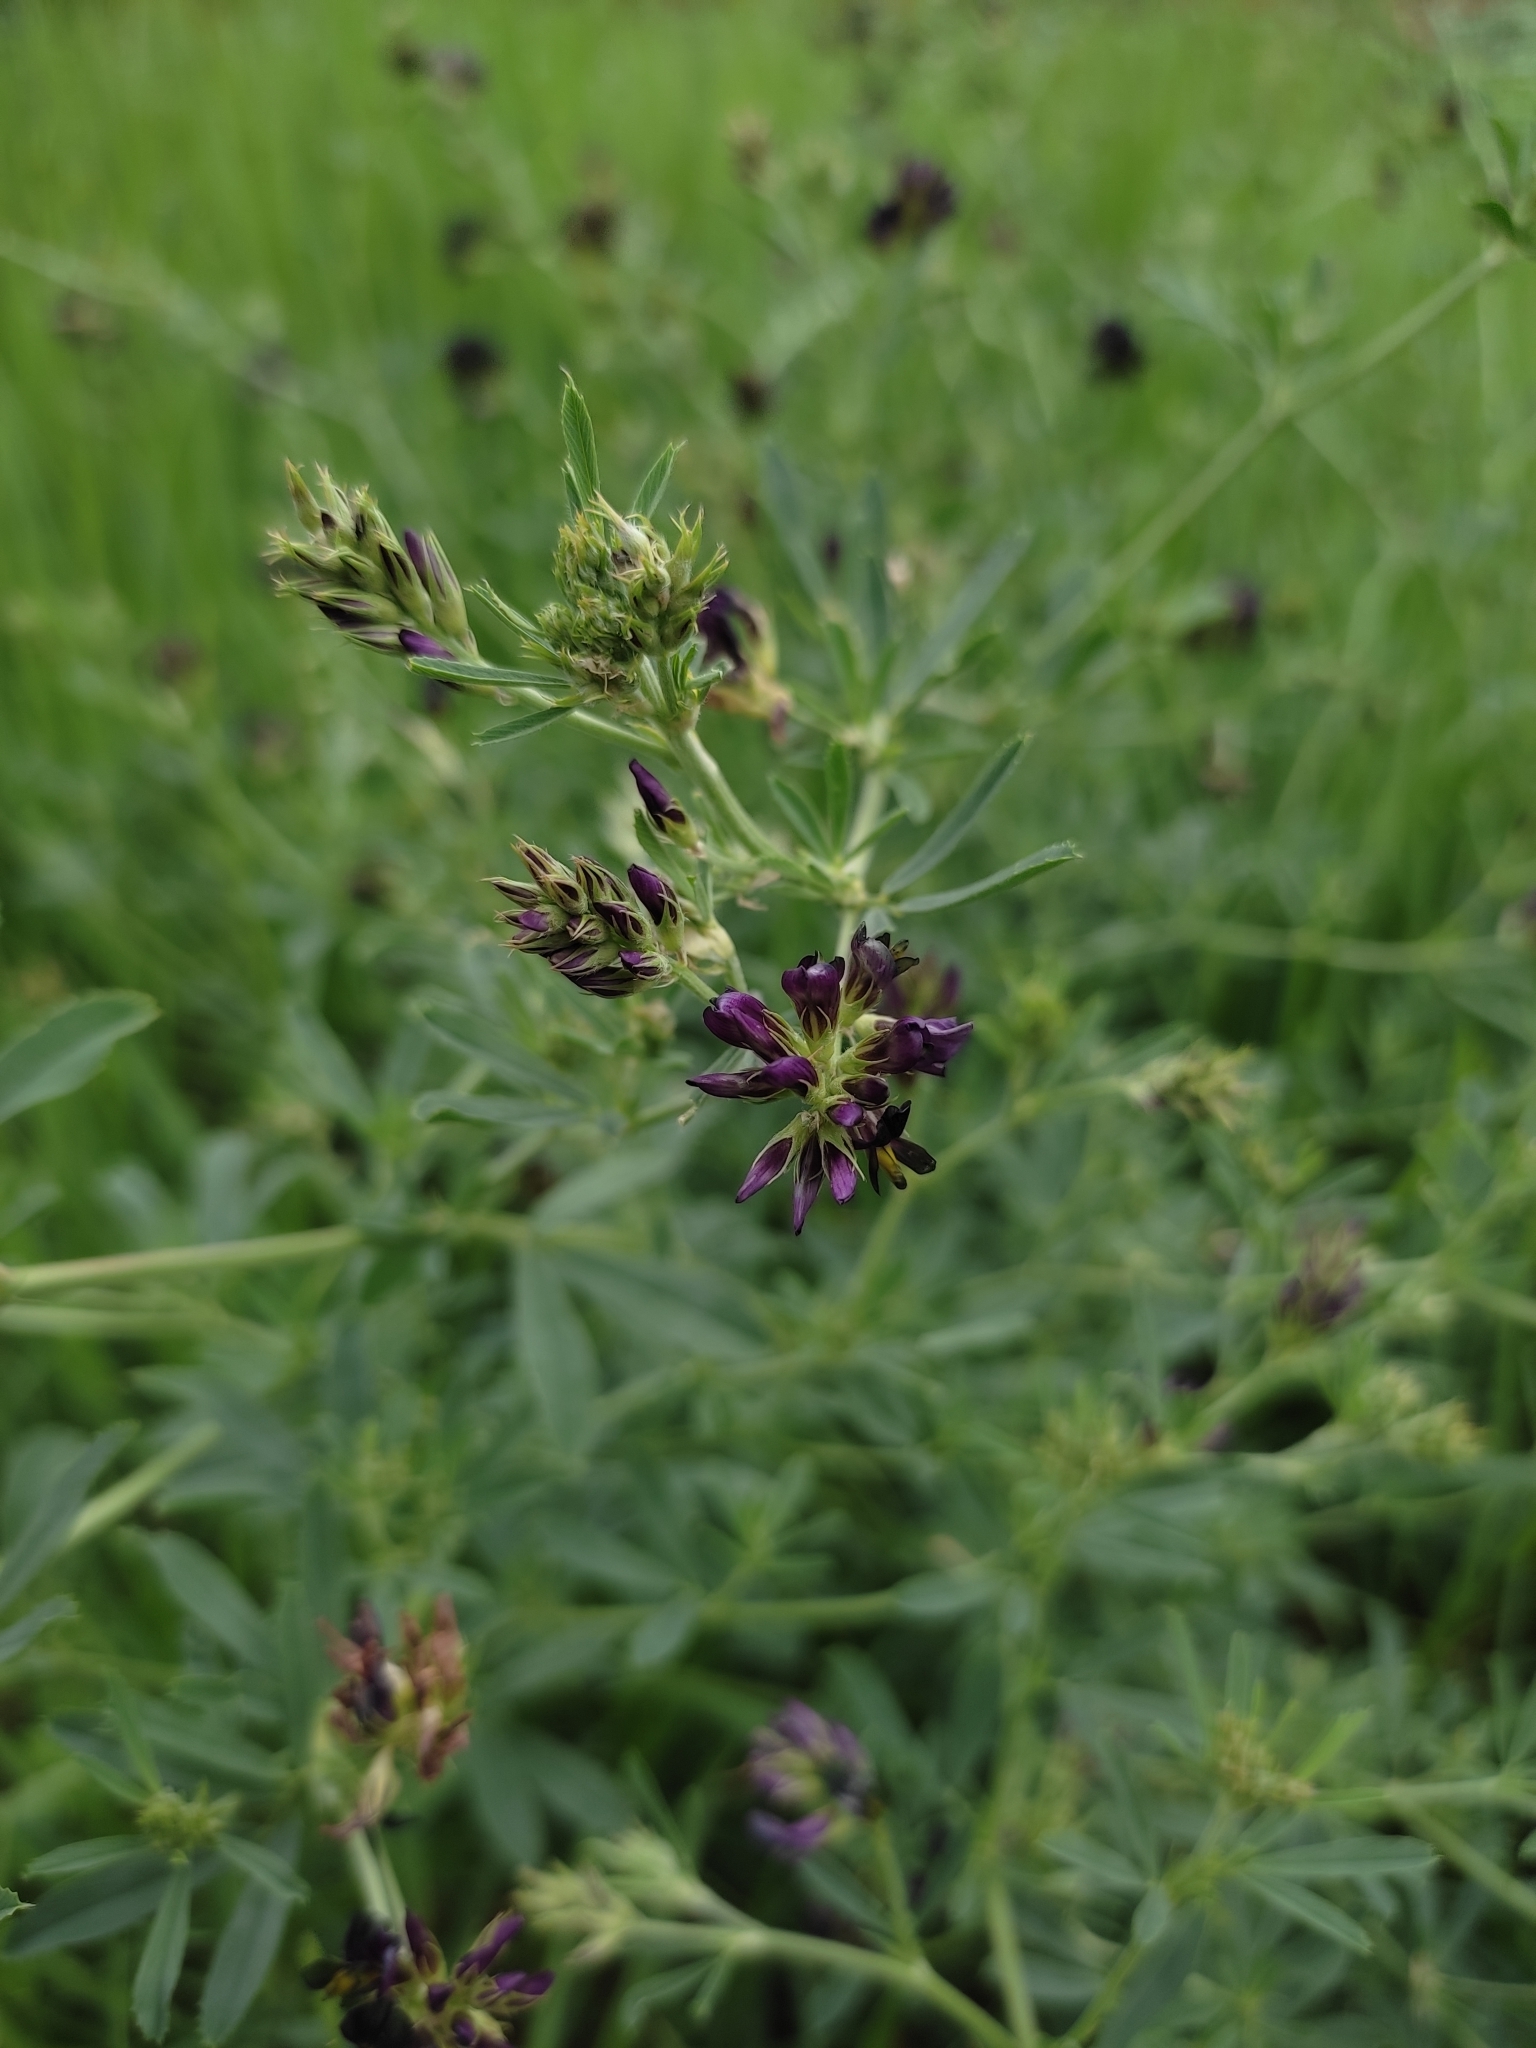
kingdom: Plantae
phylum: Tracheophyta
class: Magnoliopsida
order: Fabales
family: Fabaceae
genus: Medicago
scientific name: Medicago varia
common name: Sand lucerne
